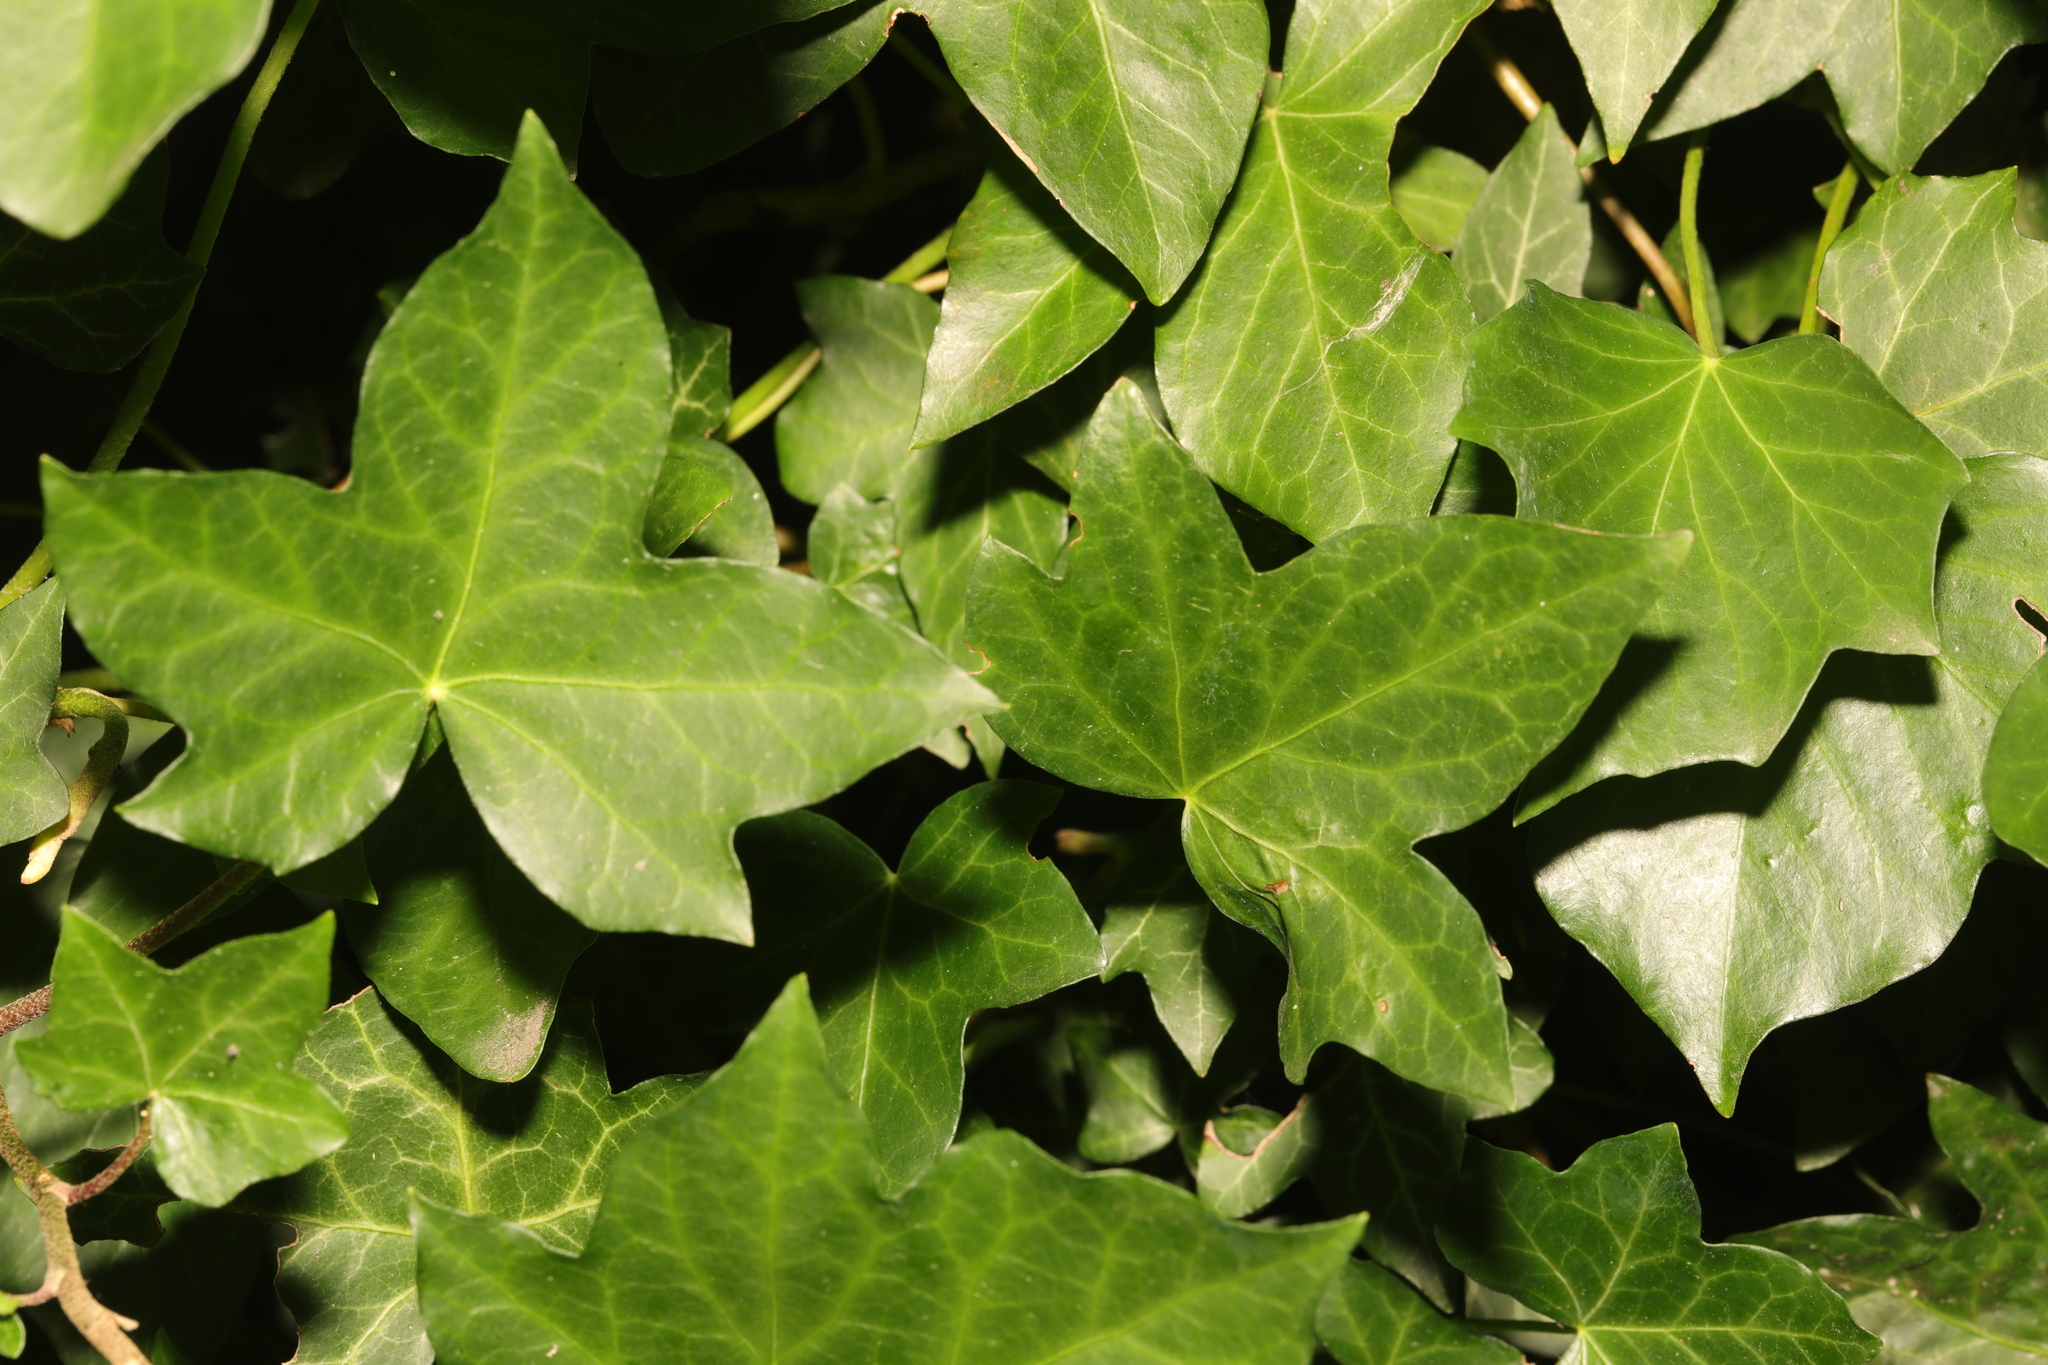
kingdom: Plantae
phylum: Tracheophyta
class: Magnoliopsida
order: Apiales
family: Araliaceae
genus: Hedera
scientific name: Hedera helix
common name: Ivy
